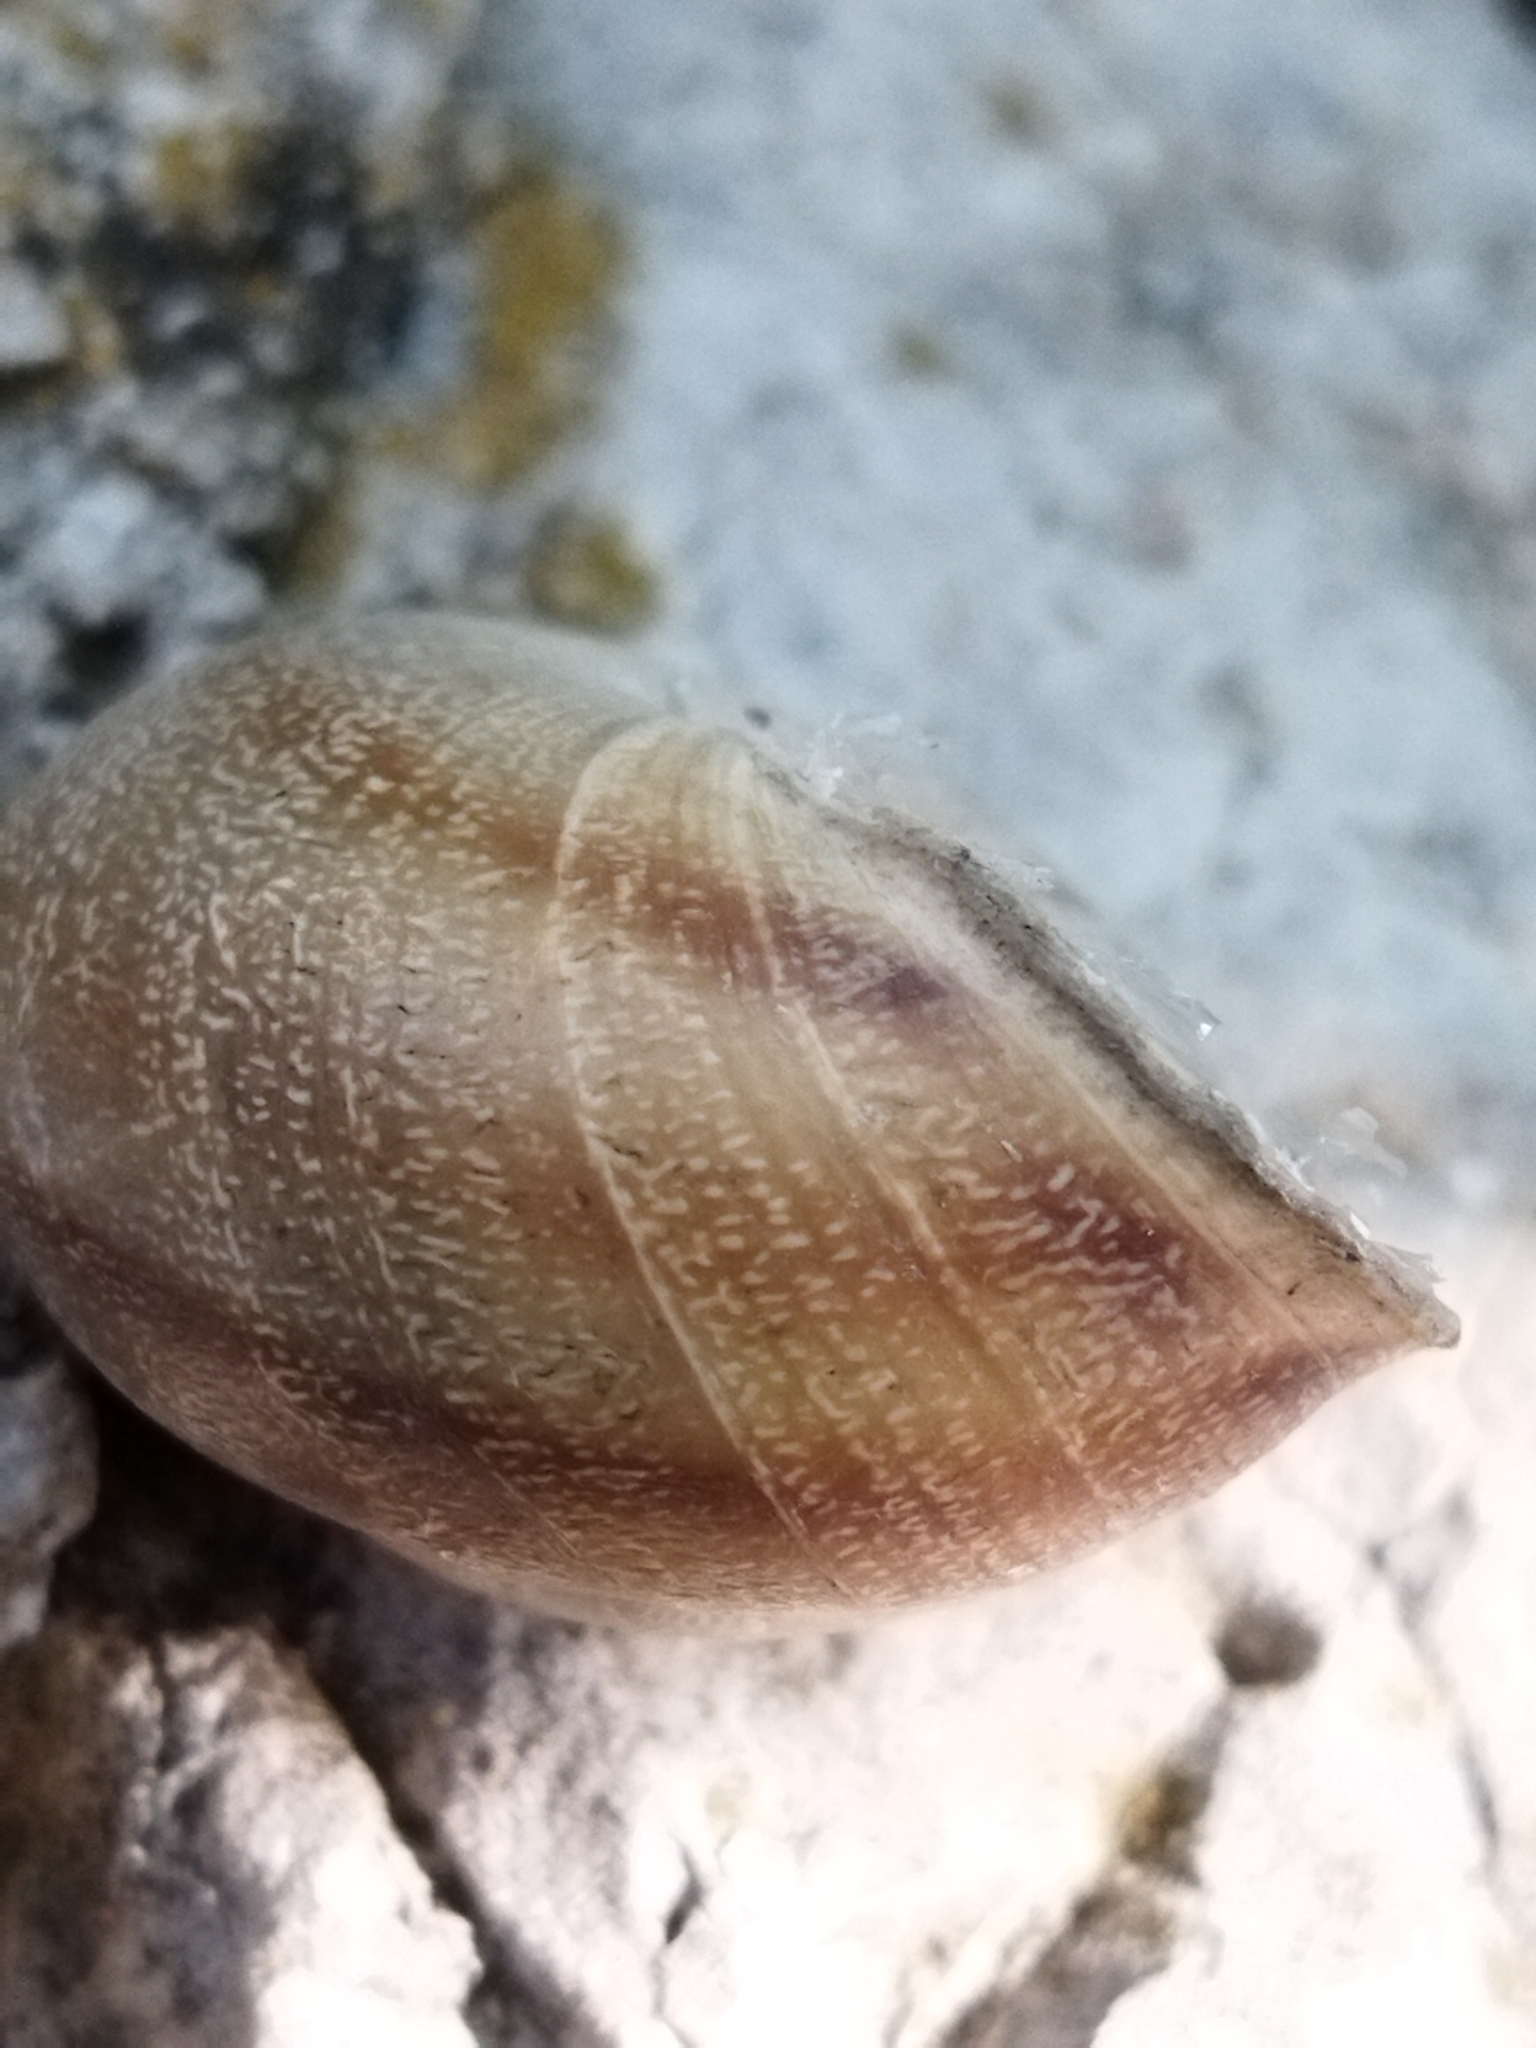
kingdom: Animalia
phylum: Mollusca
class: Gastropoda
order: Stylommatophora
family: Helicidae
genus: Eobania
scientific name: Eobania vermiculata
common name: Chocolateband snail
